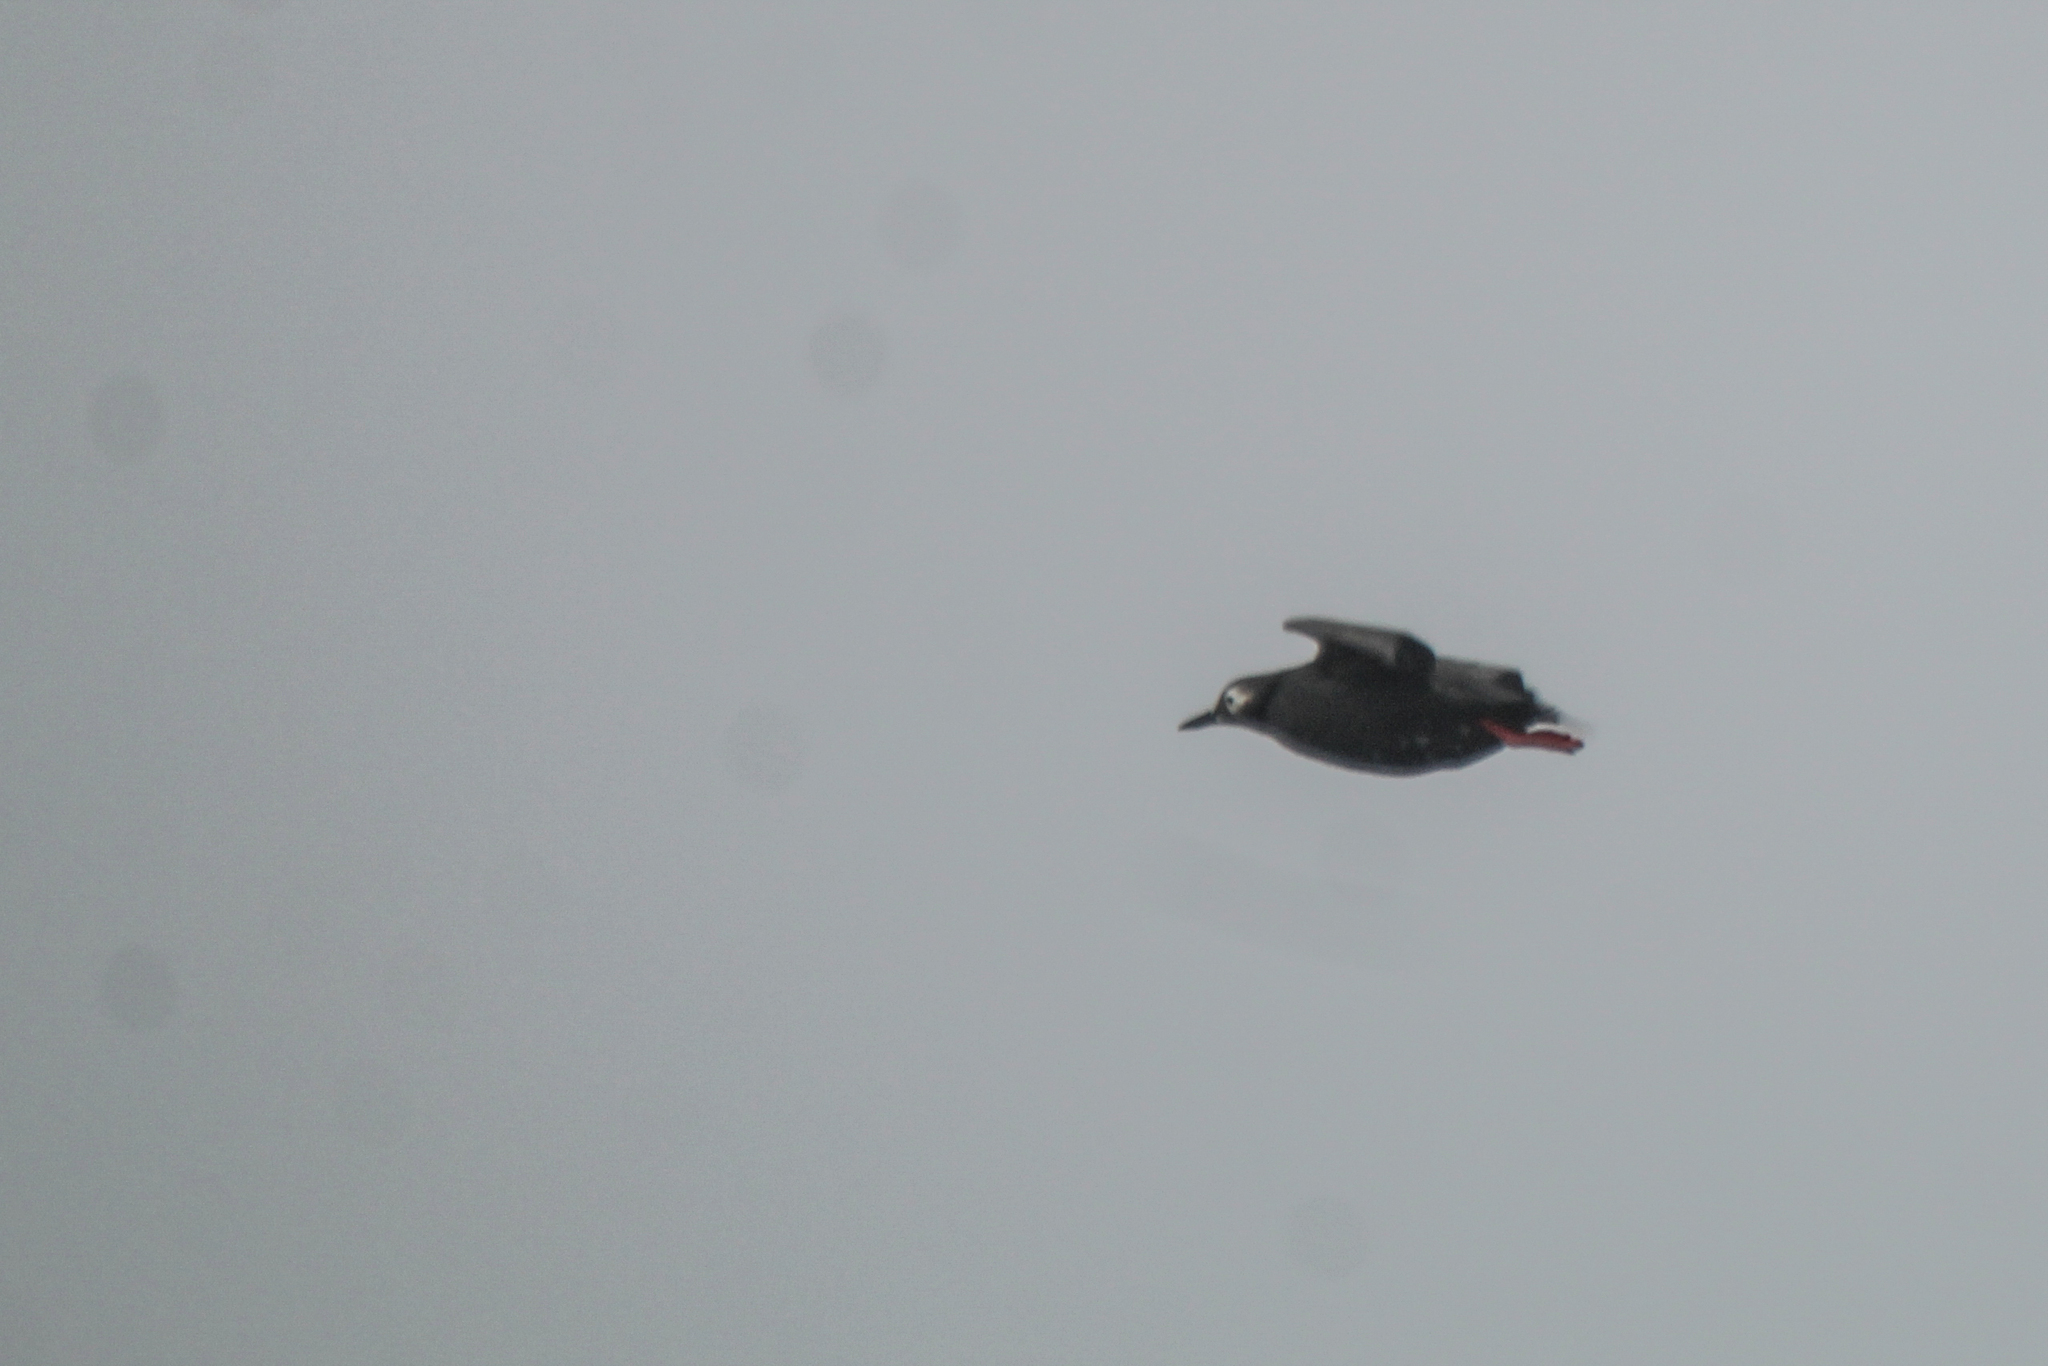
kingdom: Animalia
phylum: Chordata
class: Aves
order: Charadriiformes
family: Alcidae
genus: Cepphus
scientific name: Cepphus carbo
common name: Spectacled guillemot
